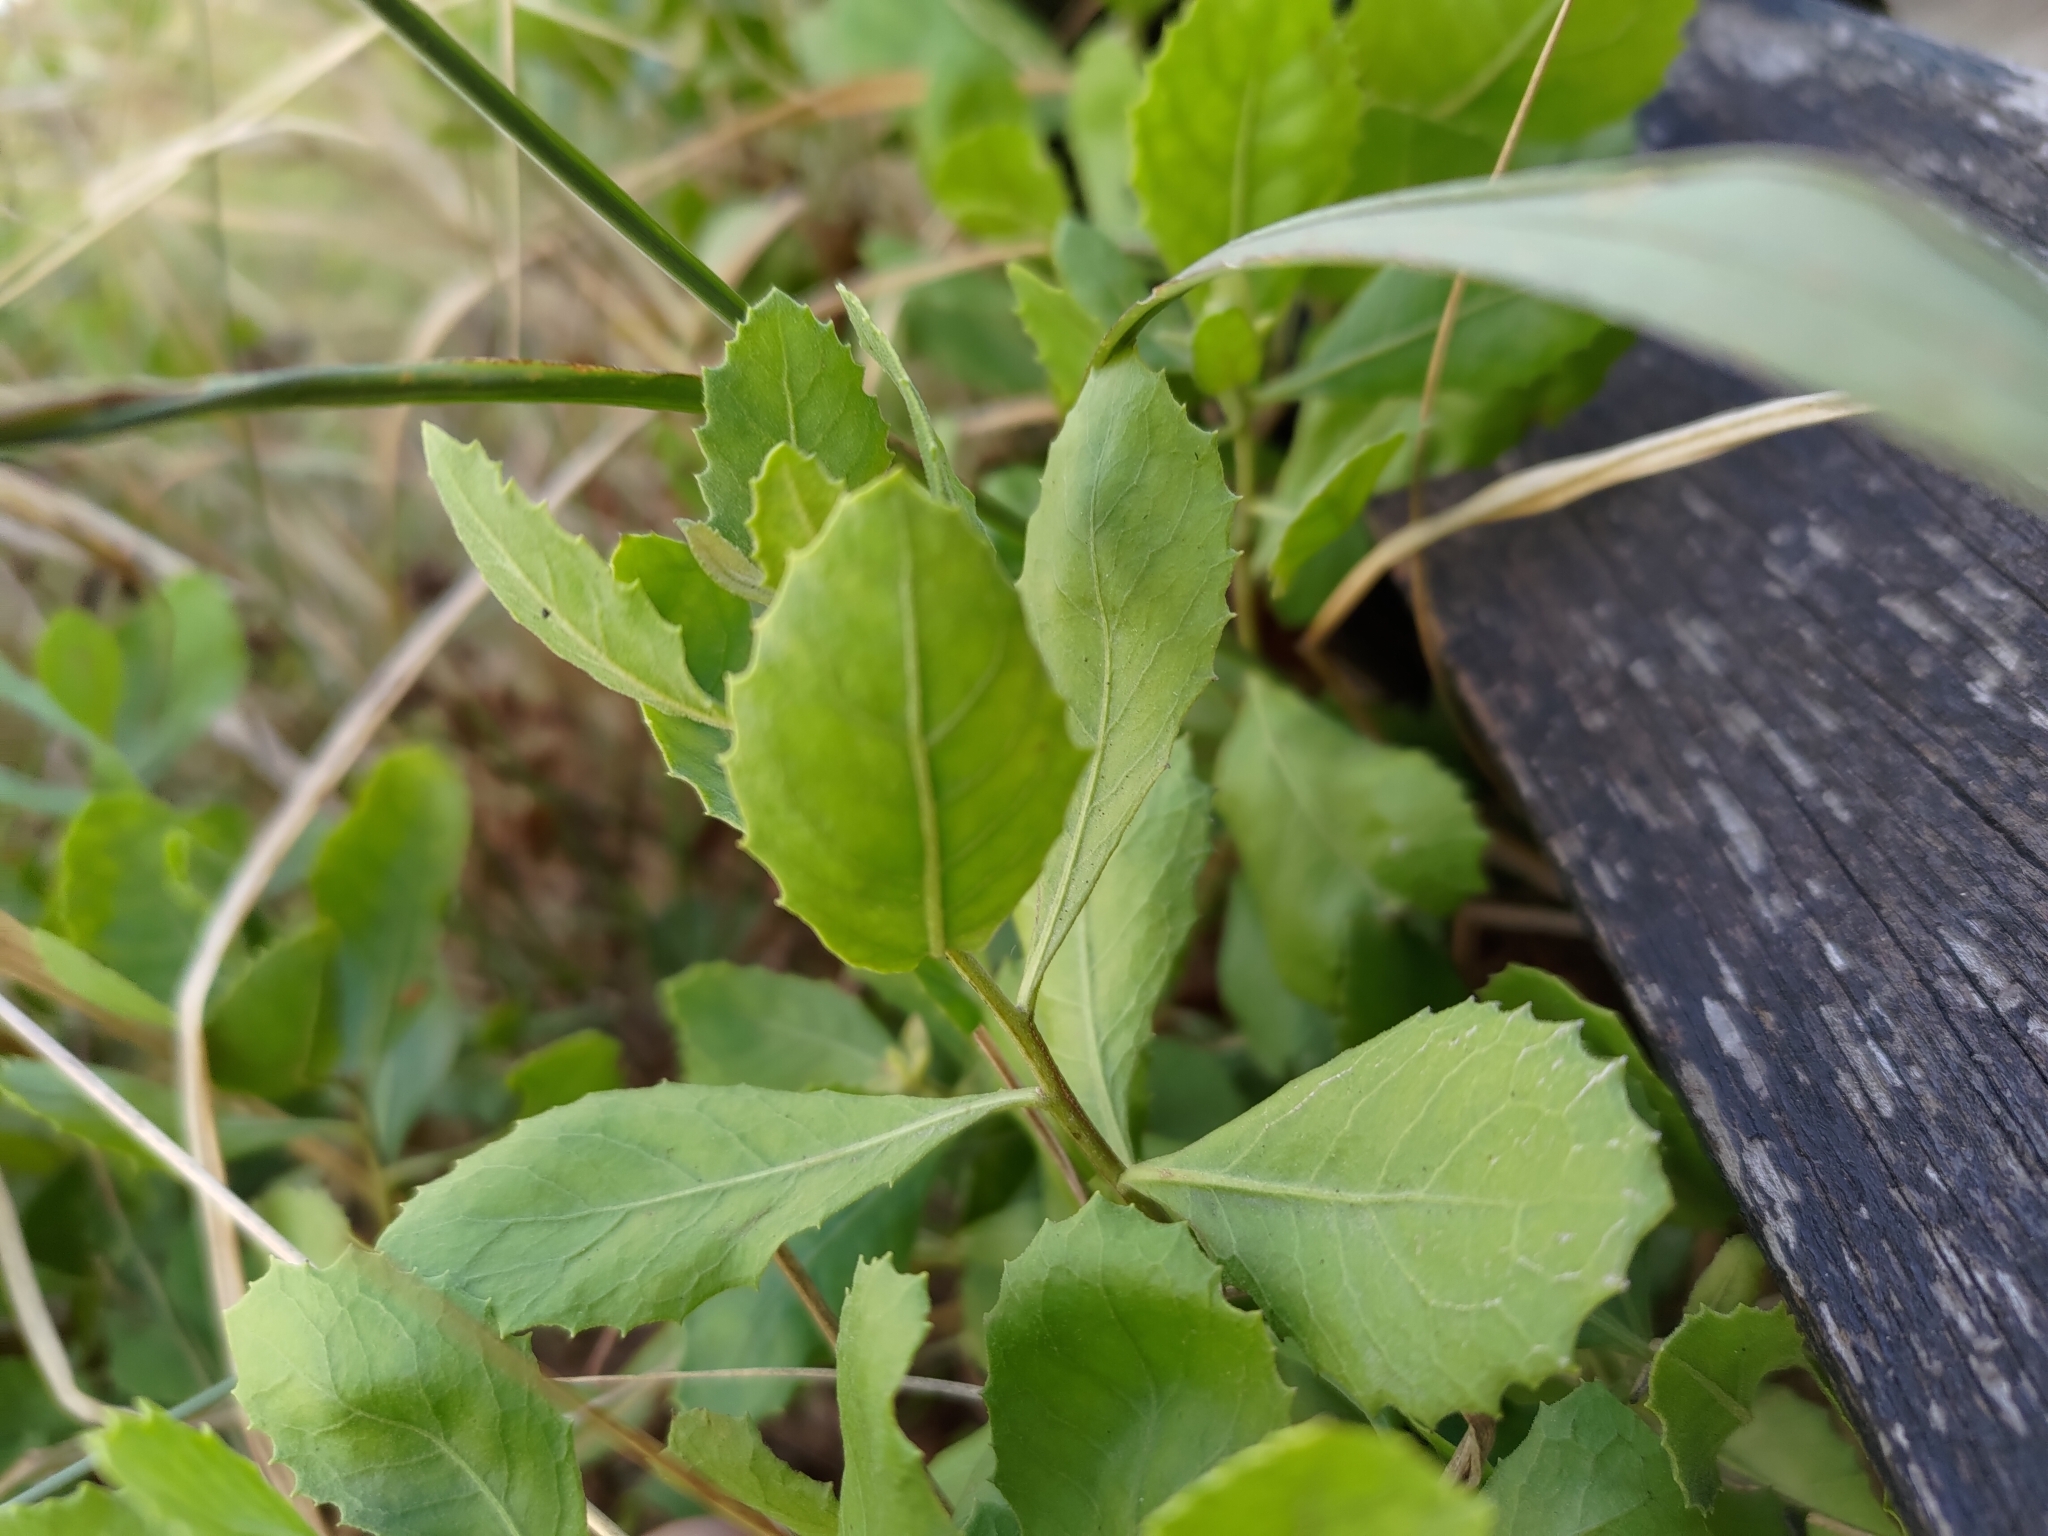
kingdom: Plantae
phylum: Tracheophyta
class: Magnoliopsida
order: Asterales
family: Asteraceae
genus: Pluchea
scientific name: Pluchea indica
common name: Indian fleabane
